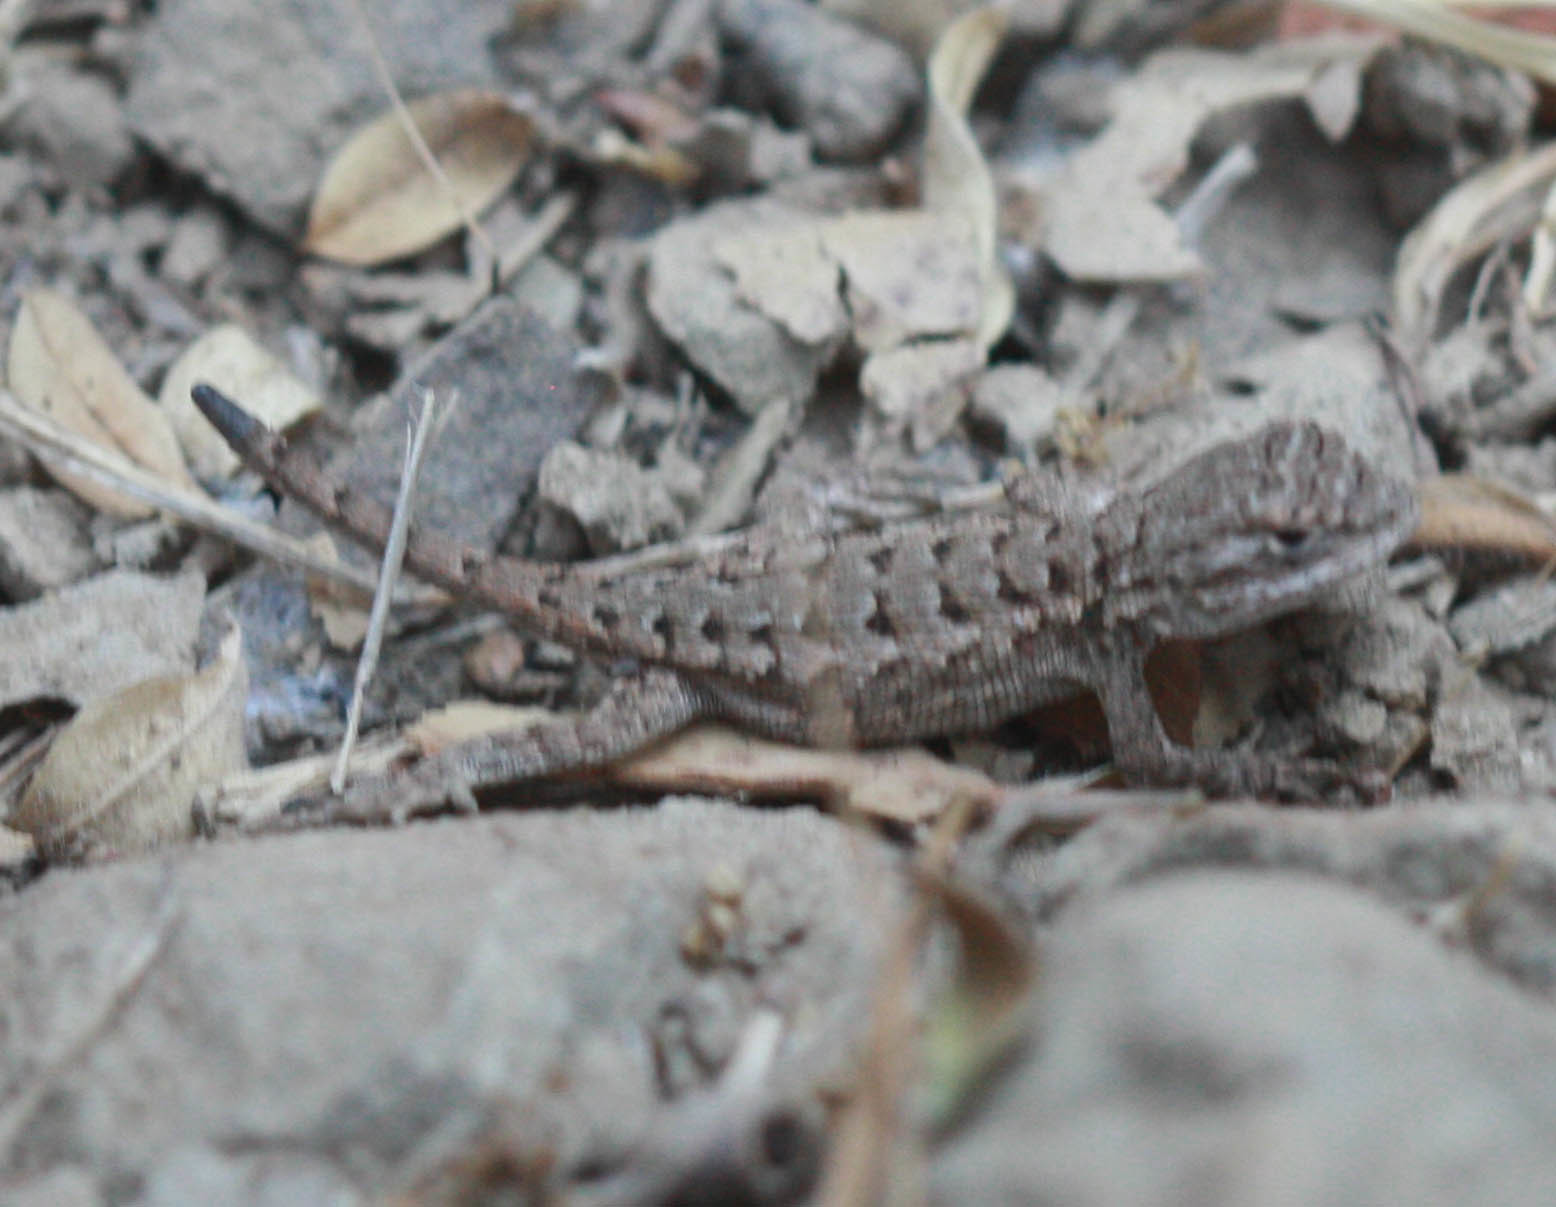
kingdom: Animalia
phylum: Chordata
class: Squamata
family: Phrynosomatidae
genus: Sceloporus
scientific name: Sceloporus occidentalis
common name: Western fence lizard
